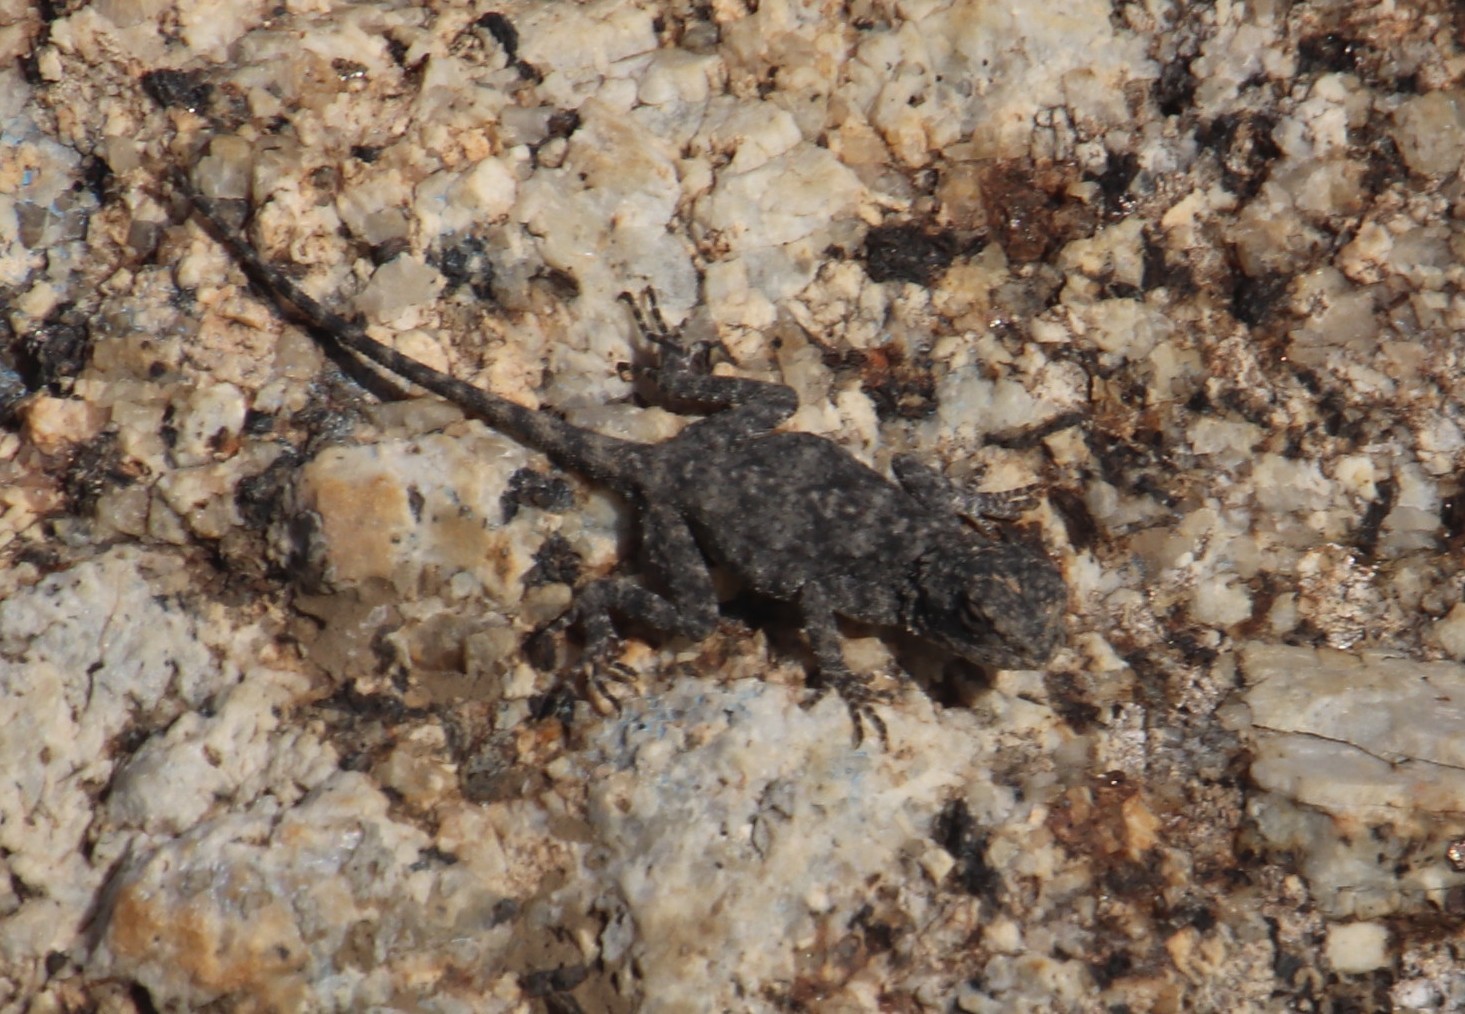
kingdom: Animalia
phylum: Chordata
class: Squamata
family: Agamidae
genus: Agama
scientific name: Agama atra
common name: Southern african rock agama
